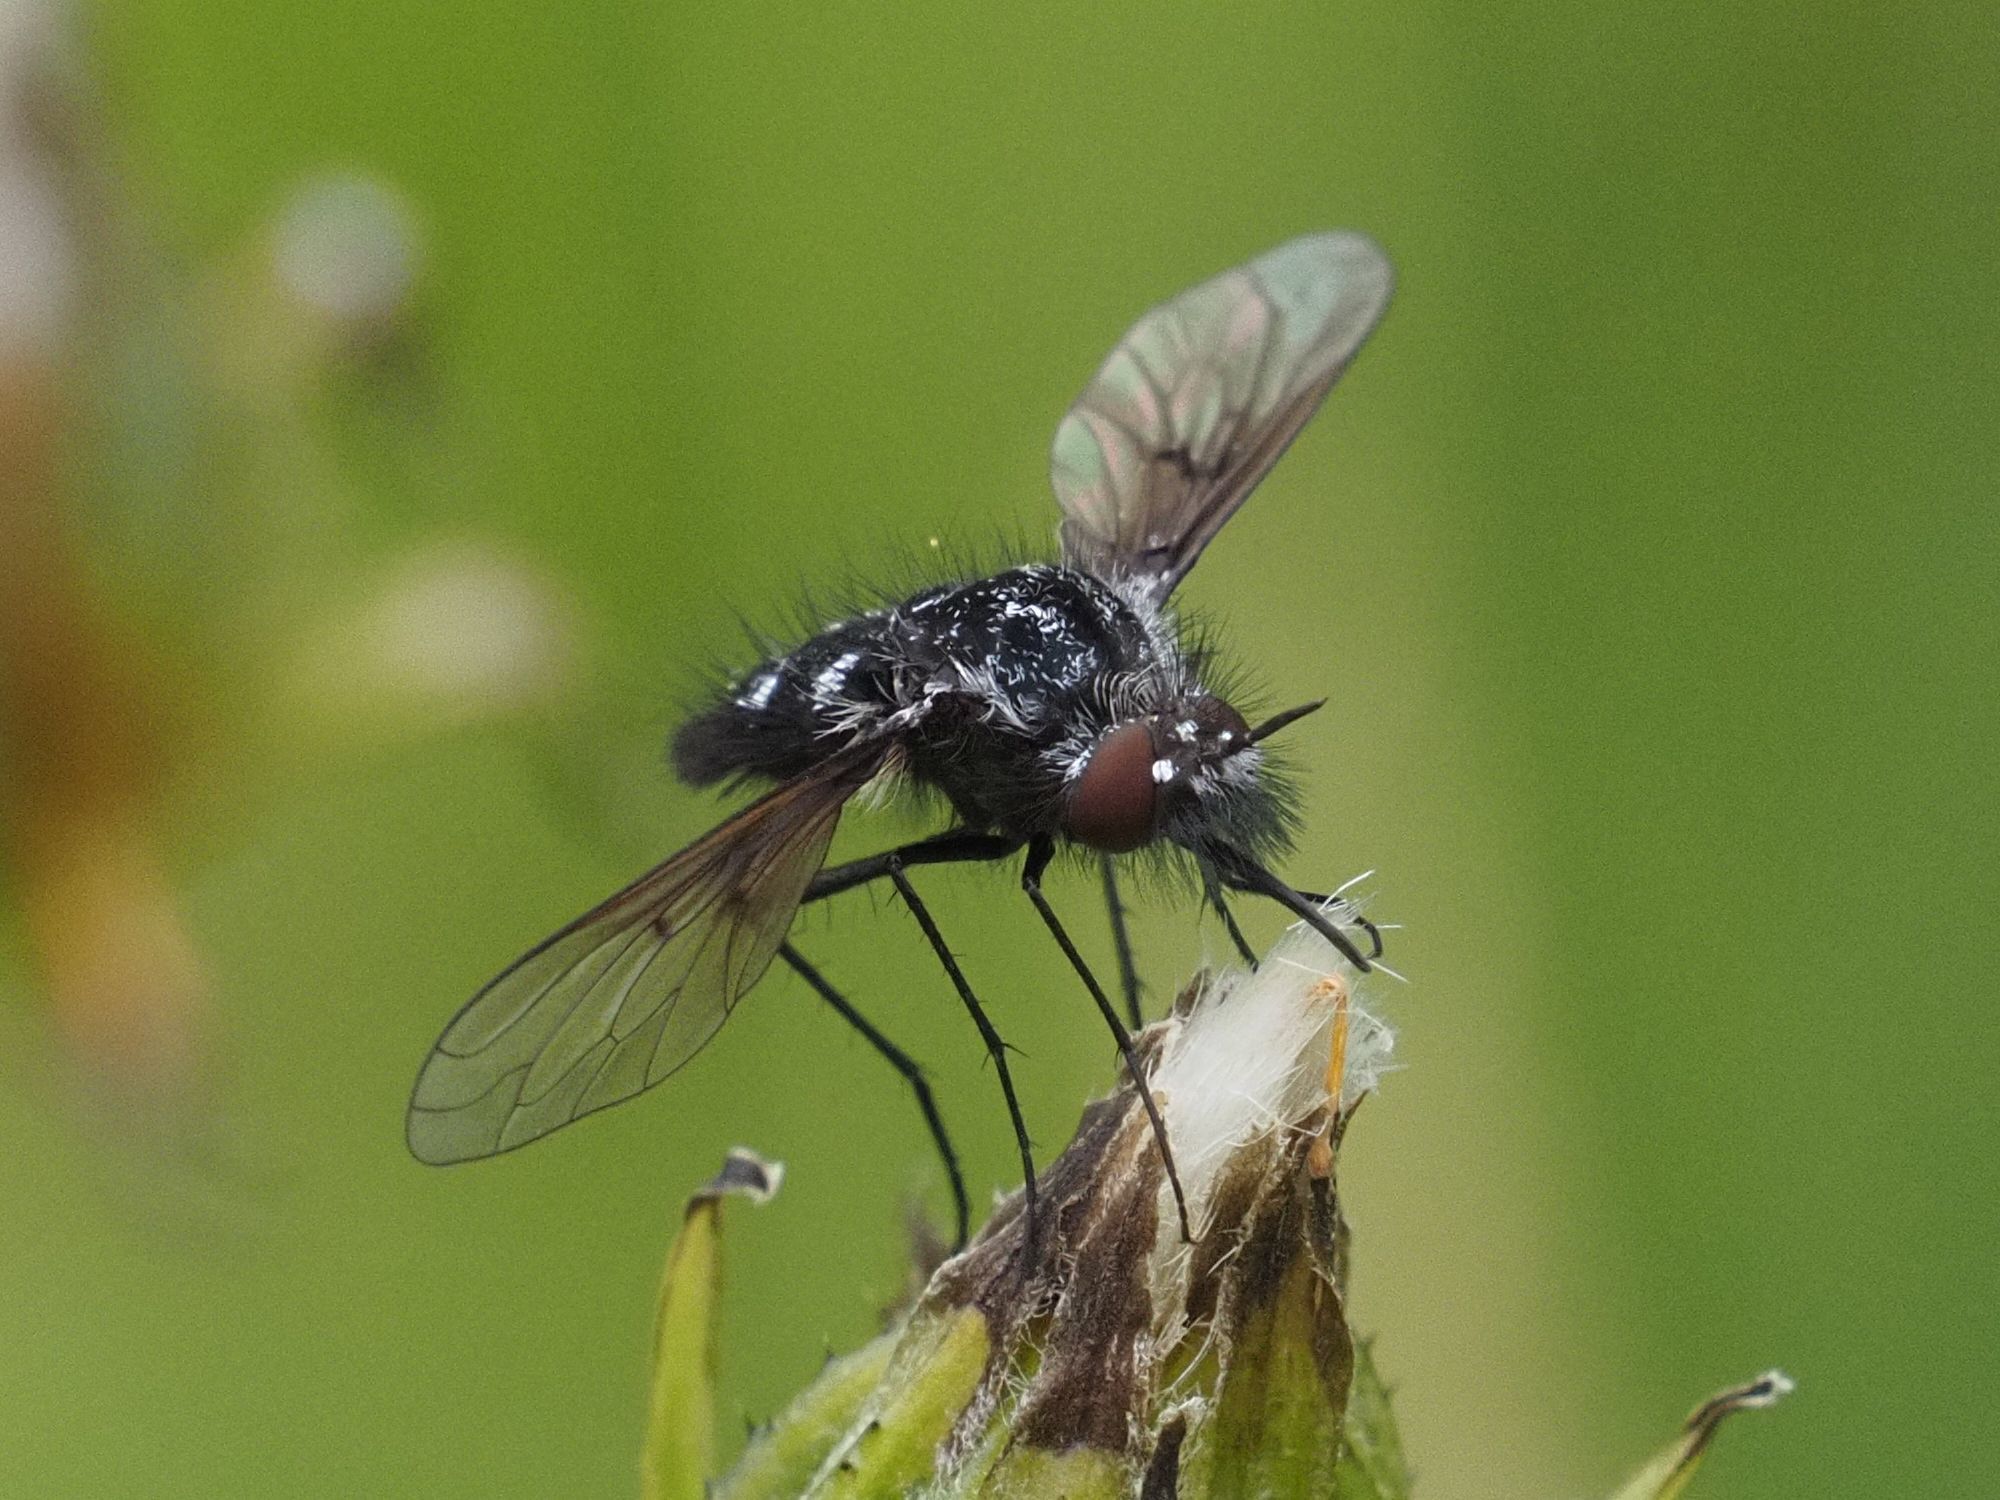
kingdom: Animalia
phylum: Arthropoda
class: Insecta
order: Diptera
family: Bombyliidae
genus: Bombylella
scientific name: Bombylella atra
